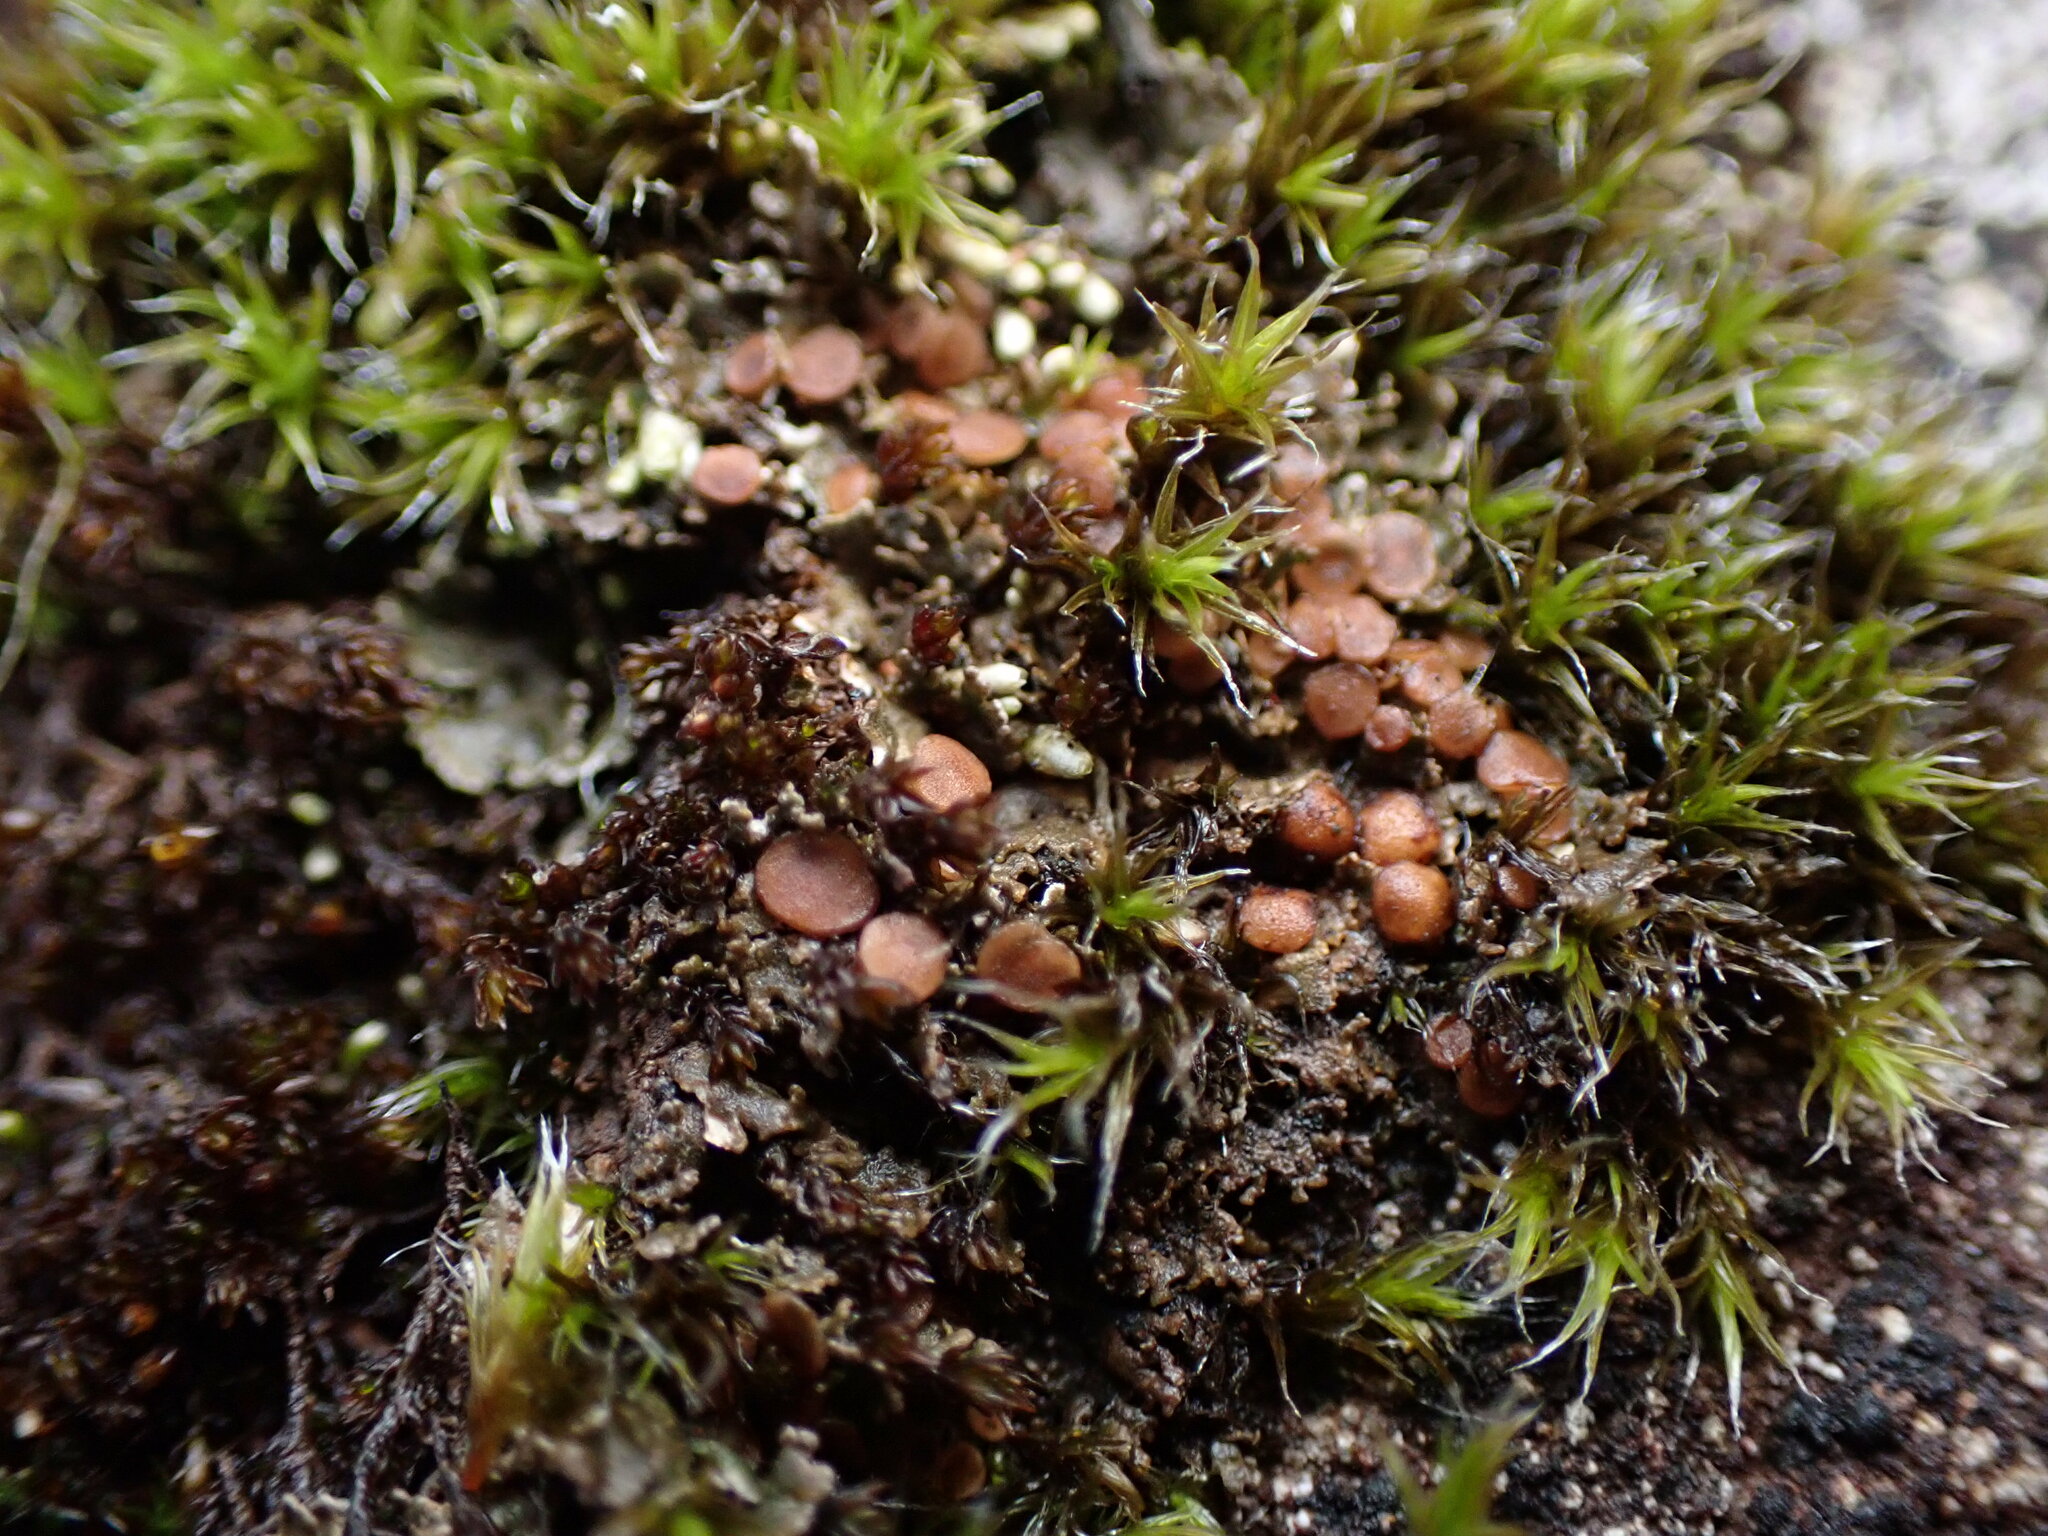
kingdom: Fungi
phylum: Ascomycota
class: Lecanoromycetes
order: Peltigerales
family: Massalongiaceae
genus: Massalongia
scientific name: Massalongia carnosa
